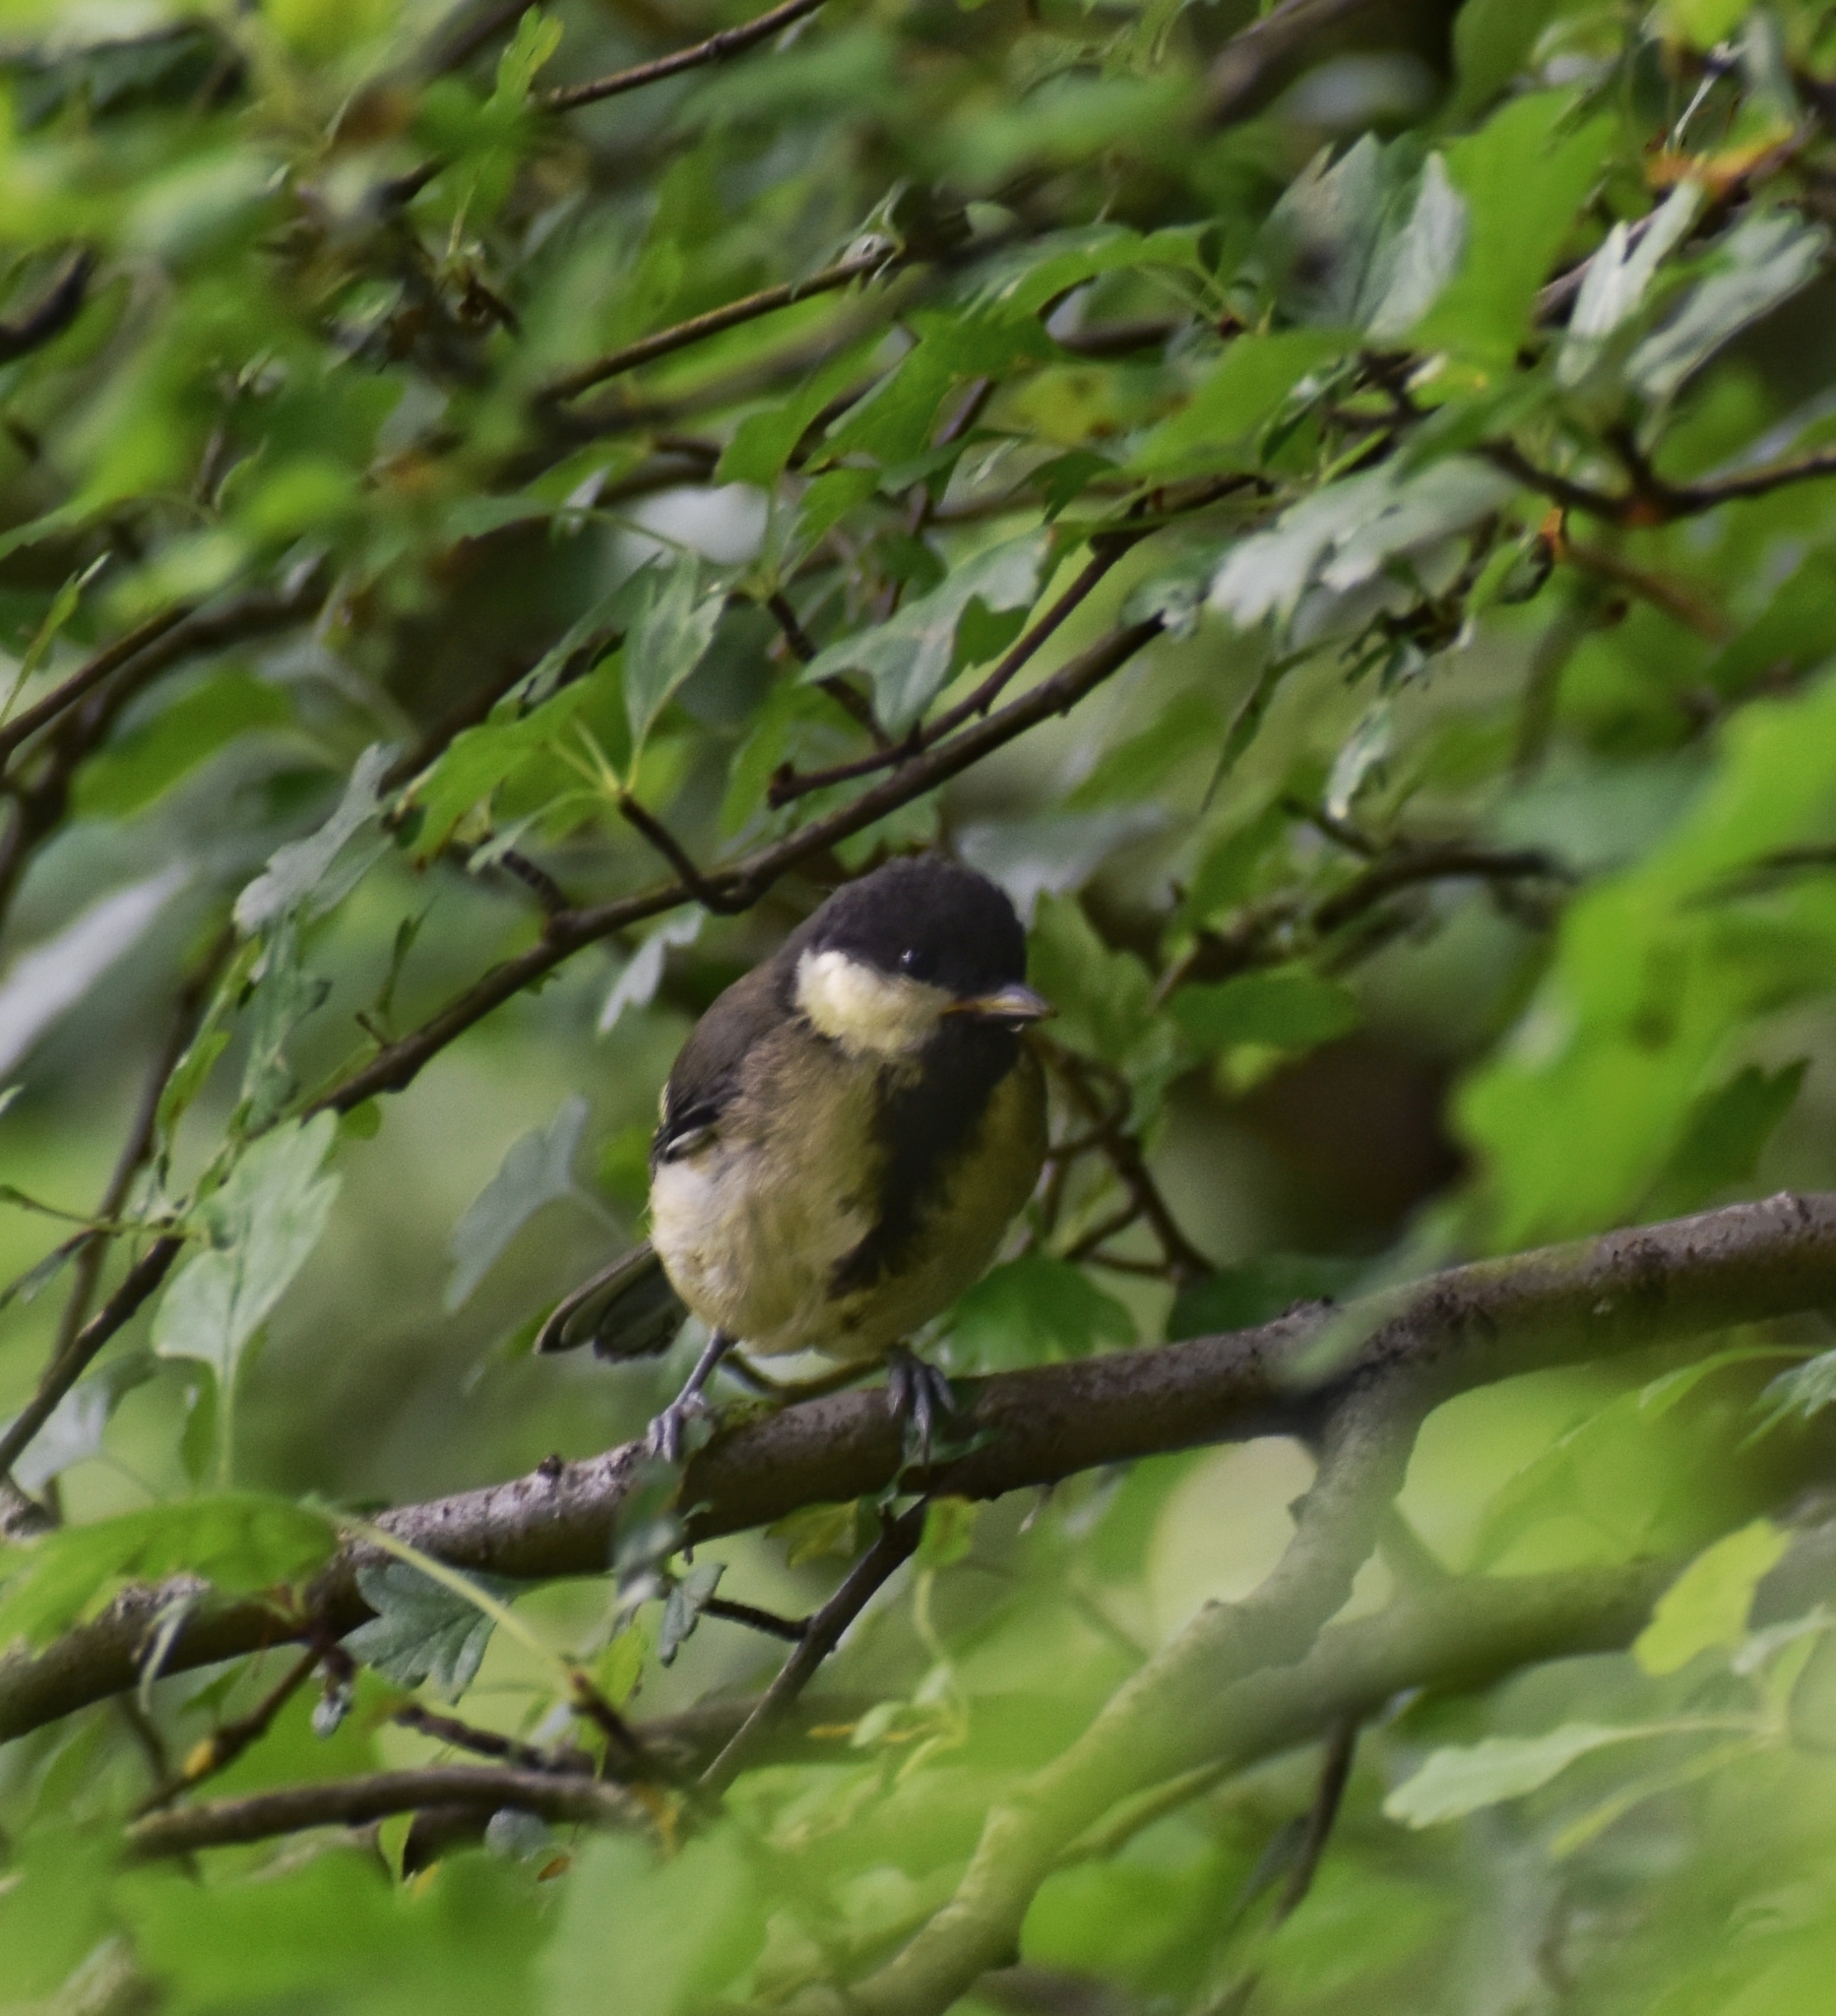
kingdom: Animalia
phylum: Chordata
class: Aves
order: Passeriformes
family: Paridae
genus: Parus
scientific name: Parus major
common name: Great tit
